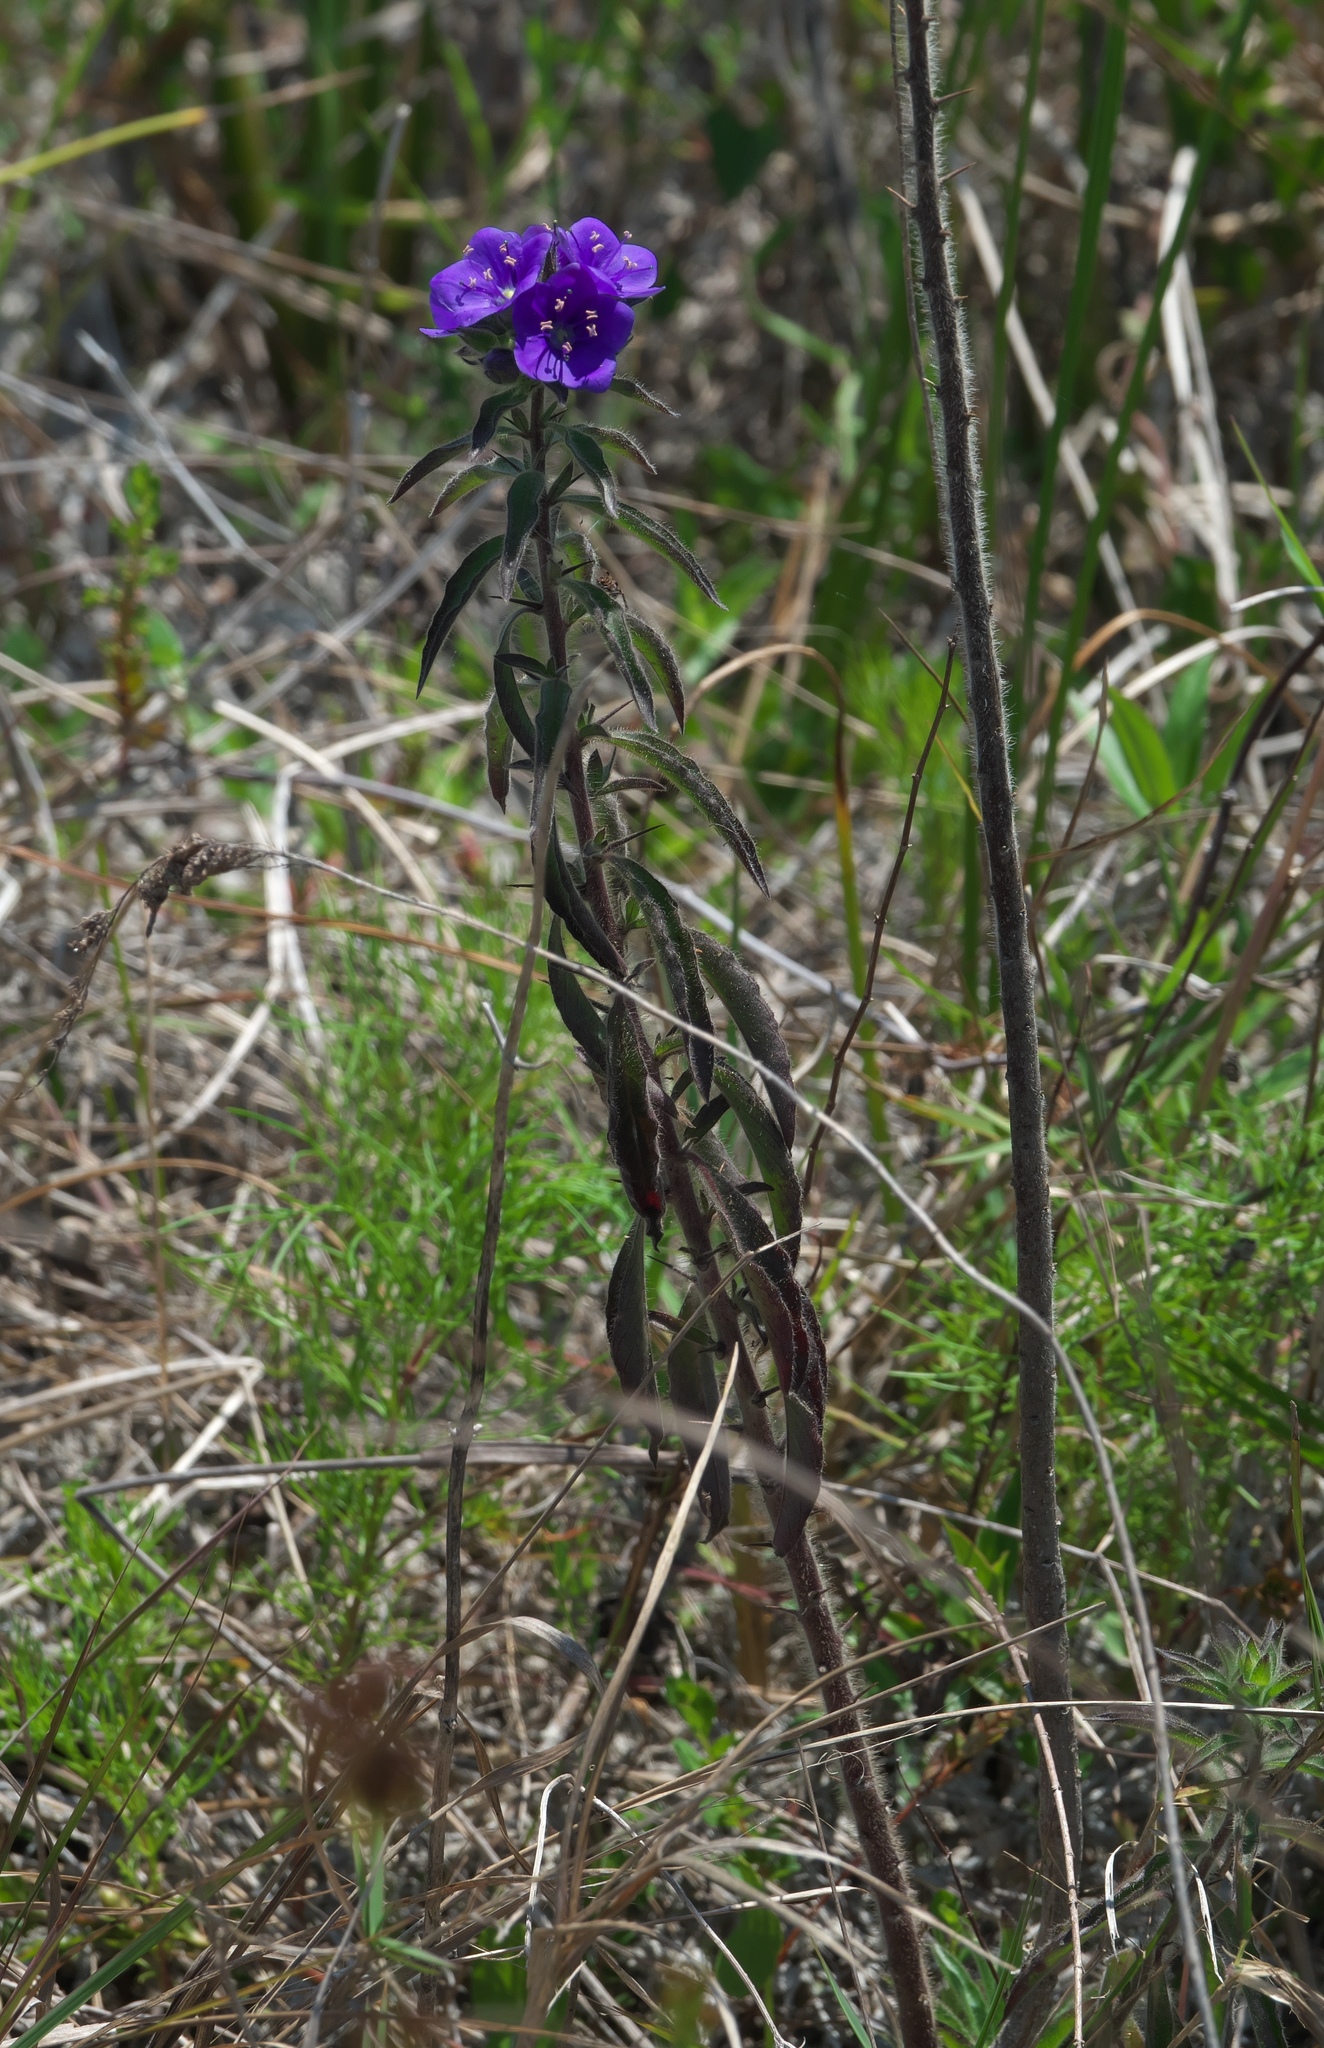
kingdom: Plantae
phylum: Tracheophyta
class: Magnoliopsida
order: Solanales
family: Hydroleaceae
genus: Hydrolea
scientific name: Hydrolea spinosa
